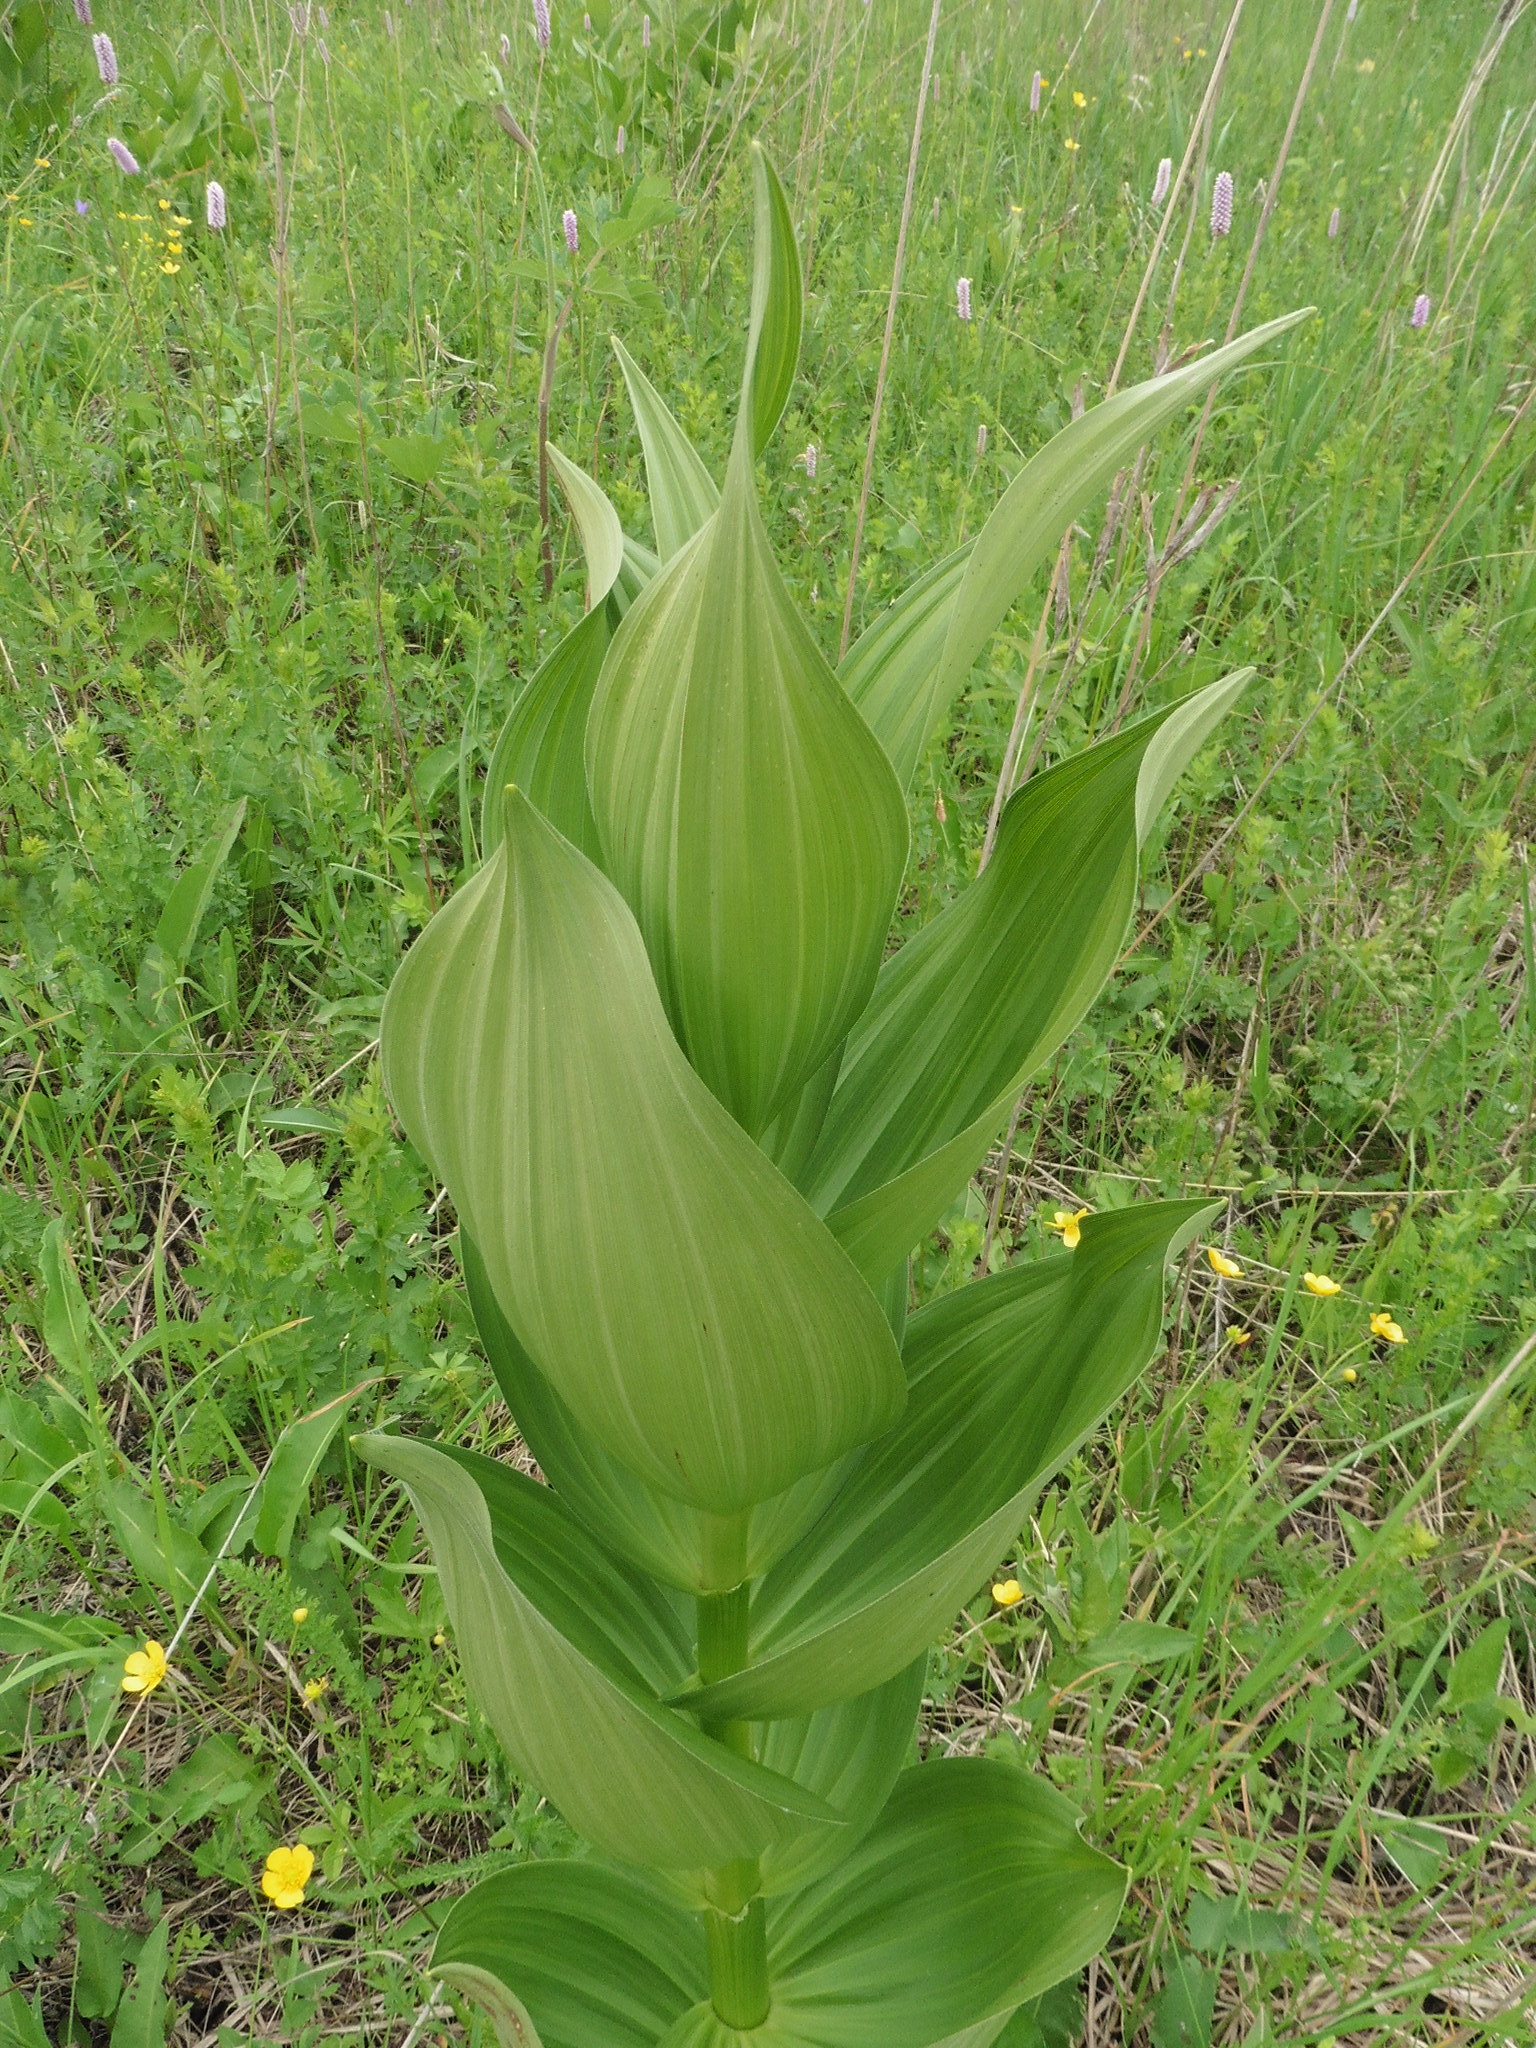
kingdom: Plantae
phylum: Tracheophyta
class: Liliopsida
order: Liliales
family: Melanthiaceae
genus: Veratrum
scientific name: Veratrum lobelianum
